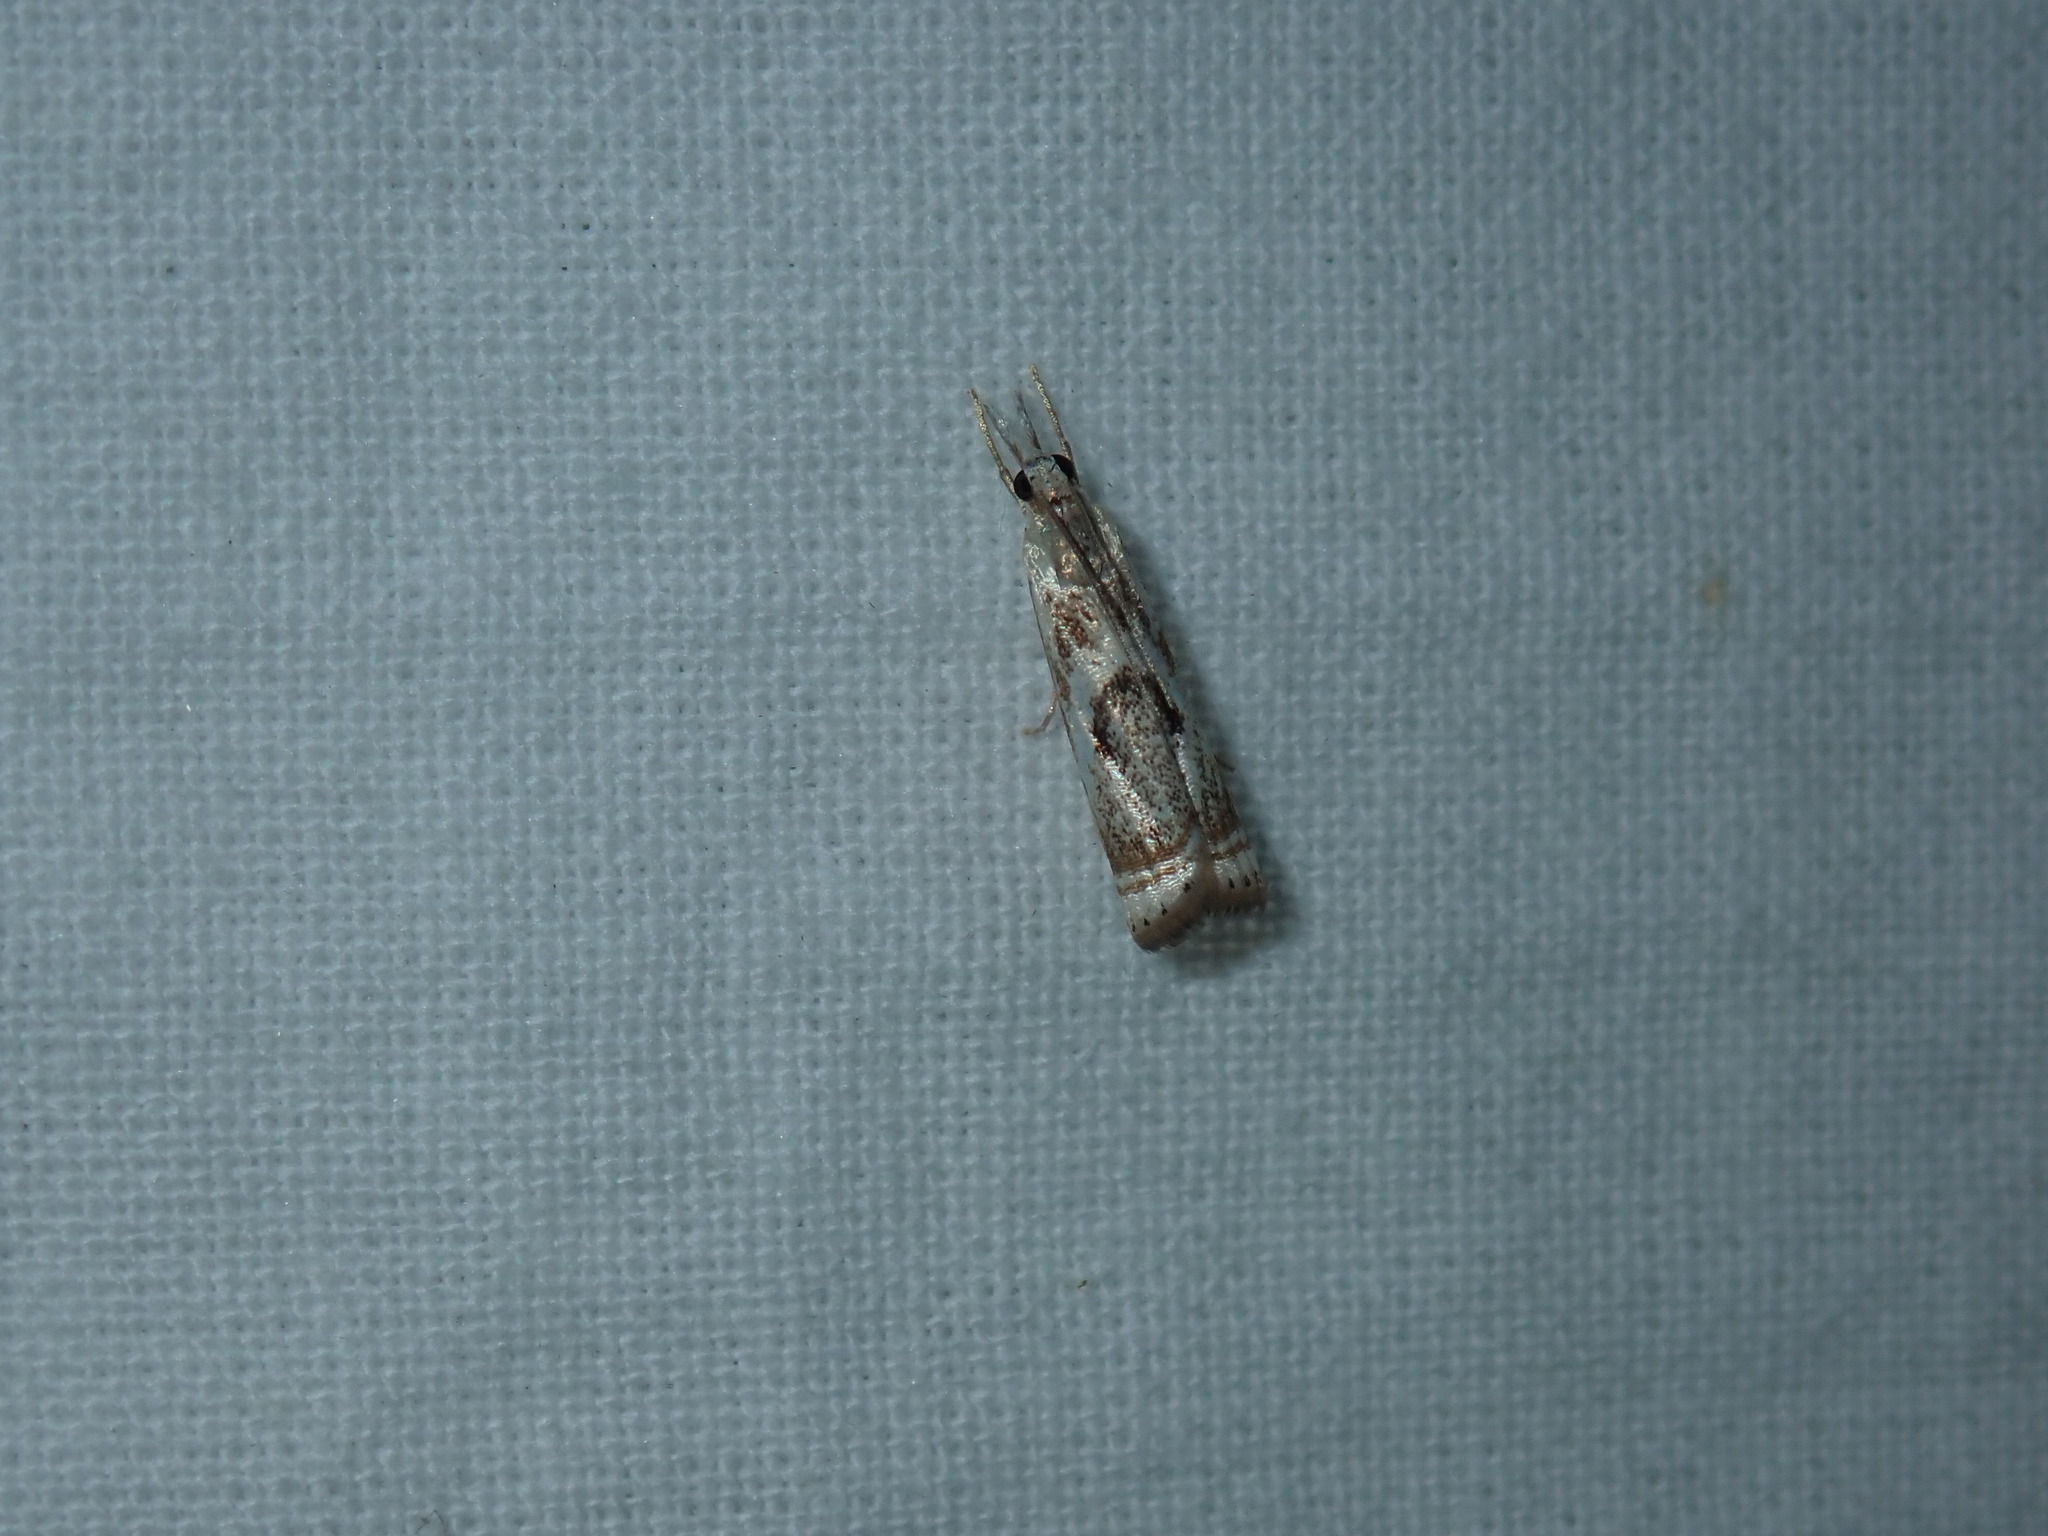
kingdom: Animalia
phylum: Arthropoda
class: Insecta
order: Lepidoptera
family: Crambidae
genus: Microcrambus
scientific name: Microcrambus elegans
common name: Elegant grass-veneer
